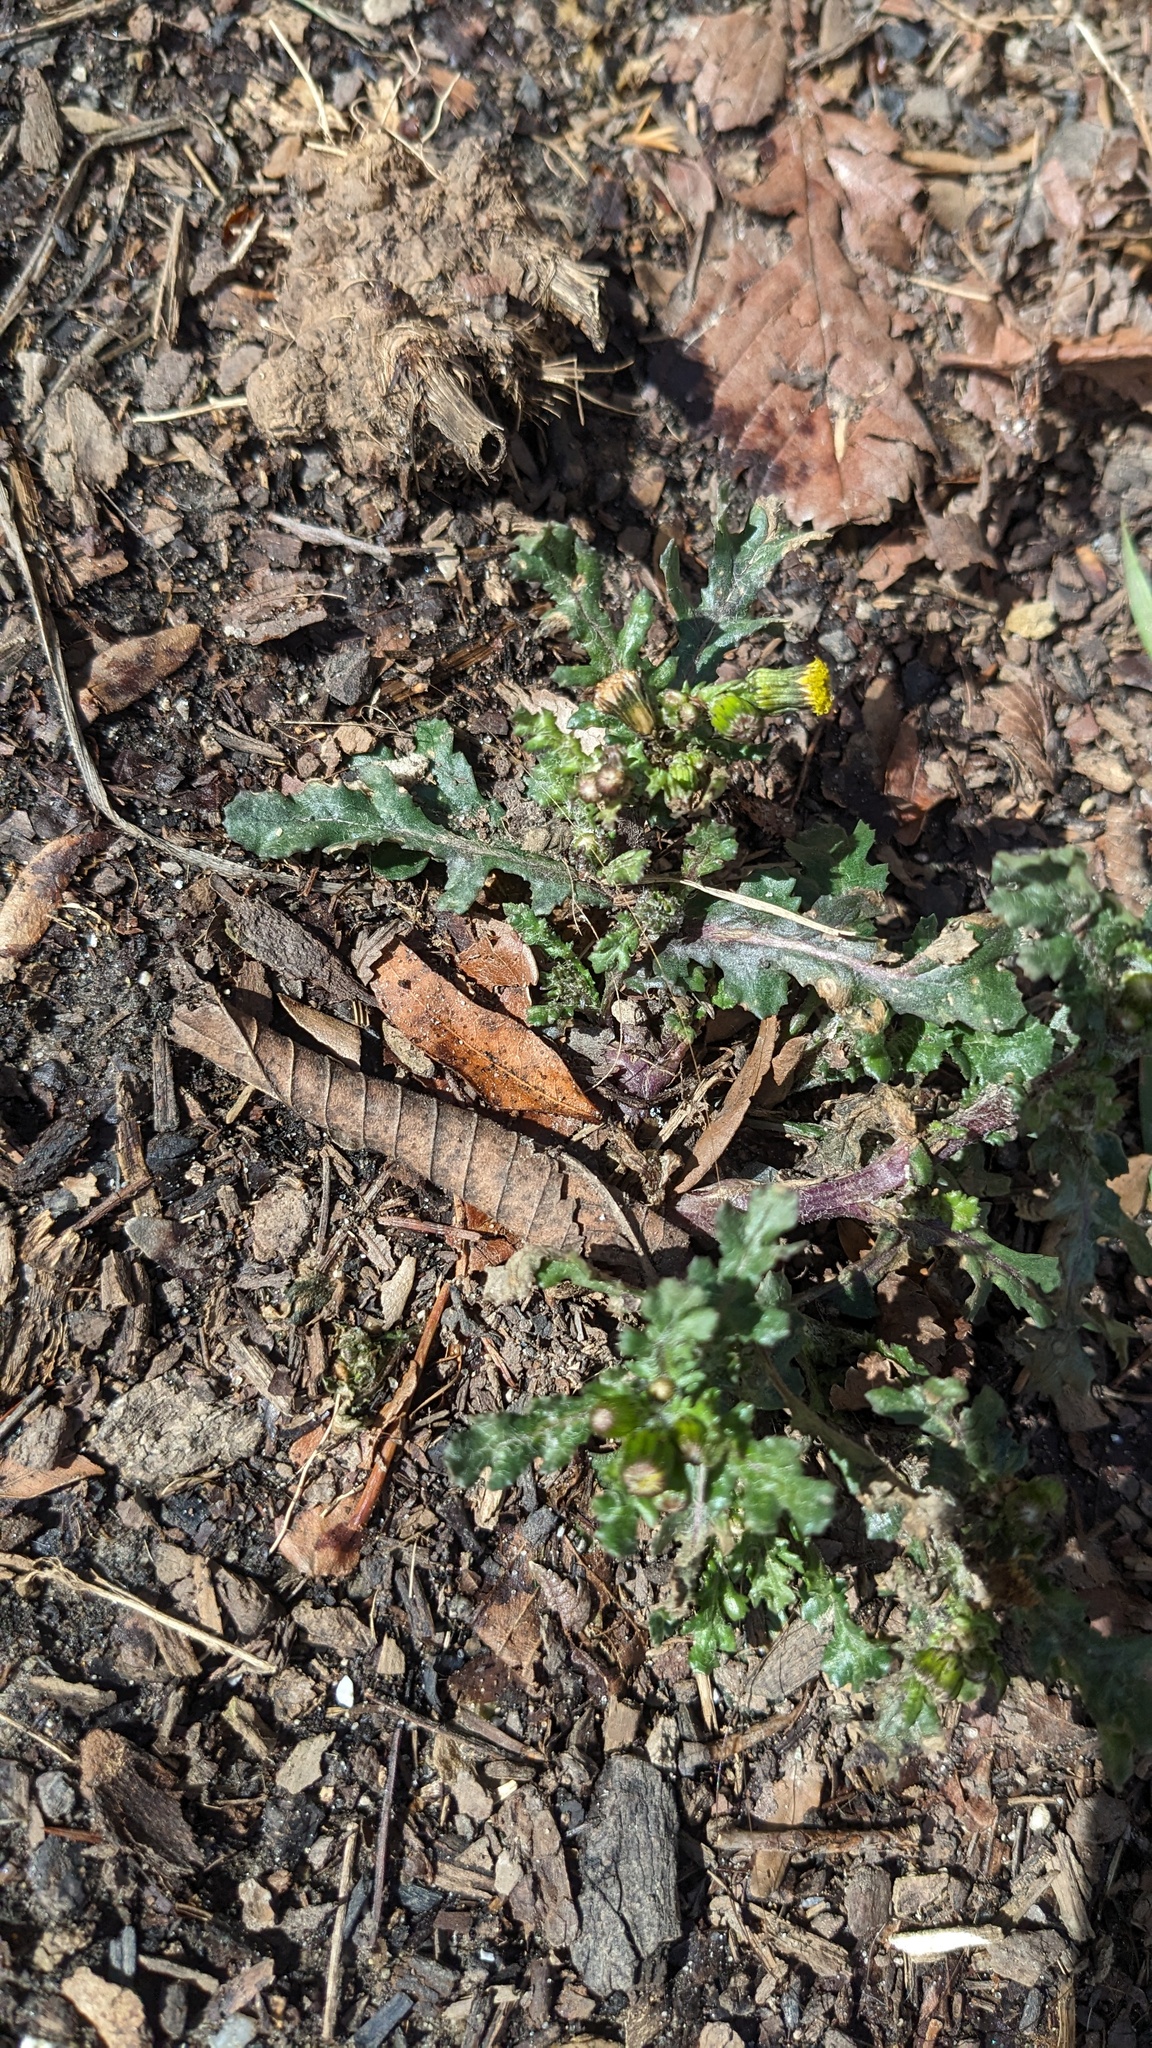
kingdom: Plantae
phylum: Tracheophyta
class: Magnoliopsida
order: Asterales
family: Asteraceae
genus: Senecio
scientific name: Senecio vulgaris
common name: Old-man-in-the-spring
